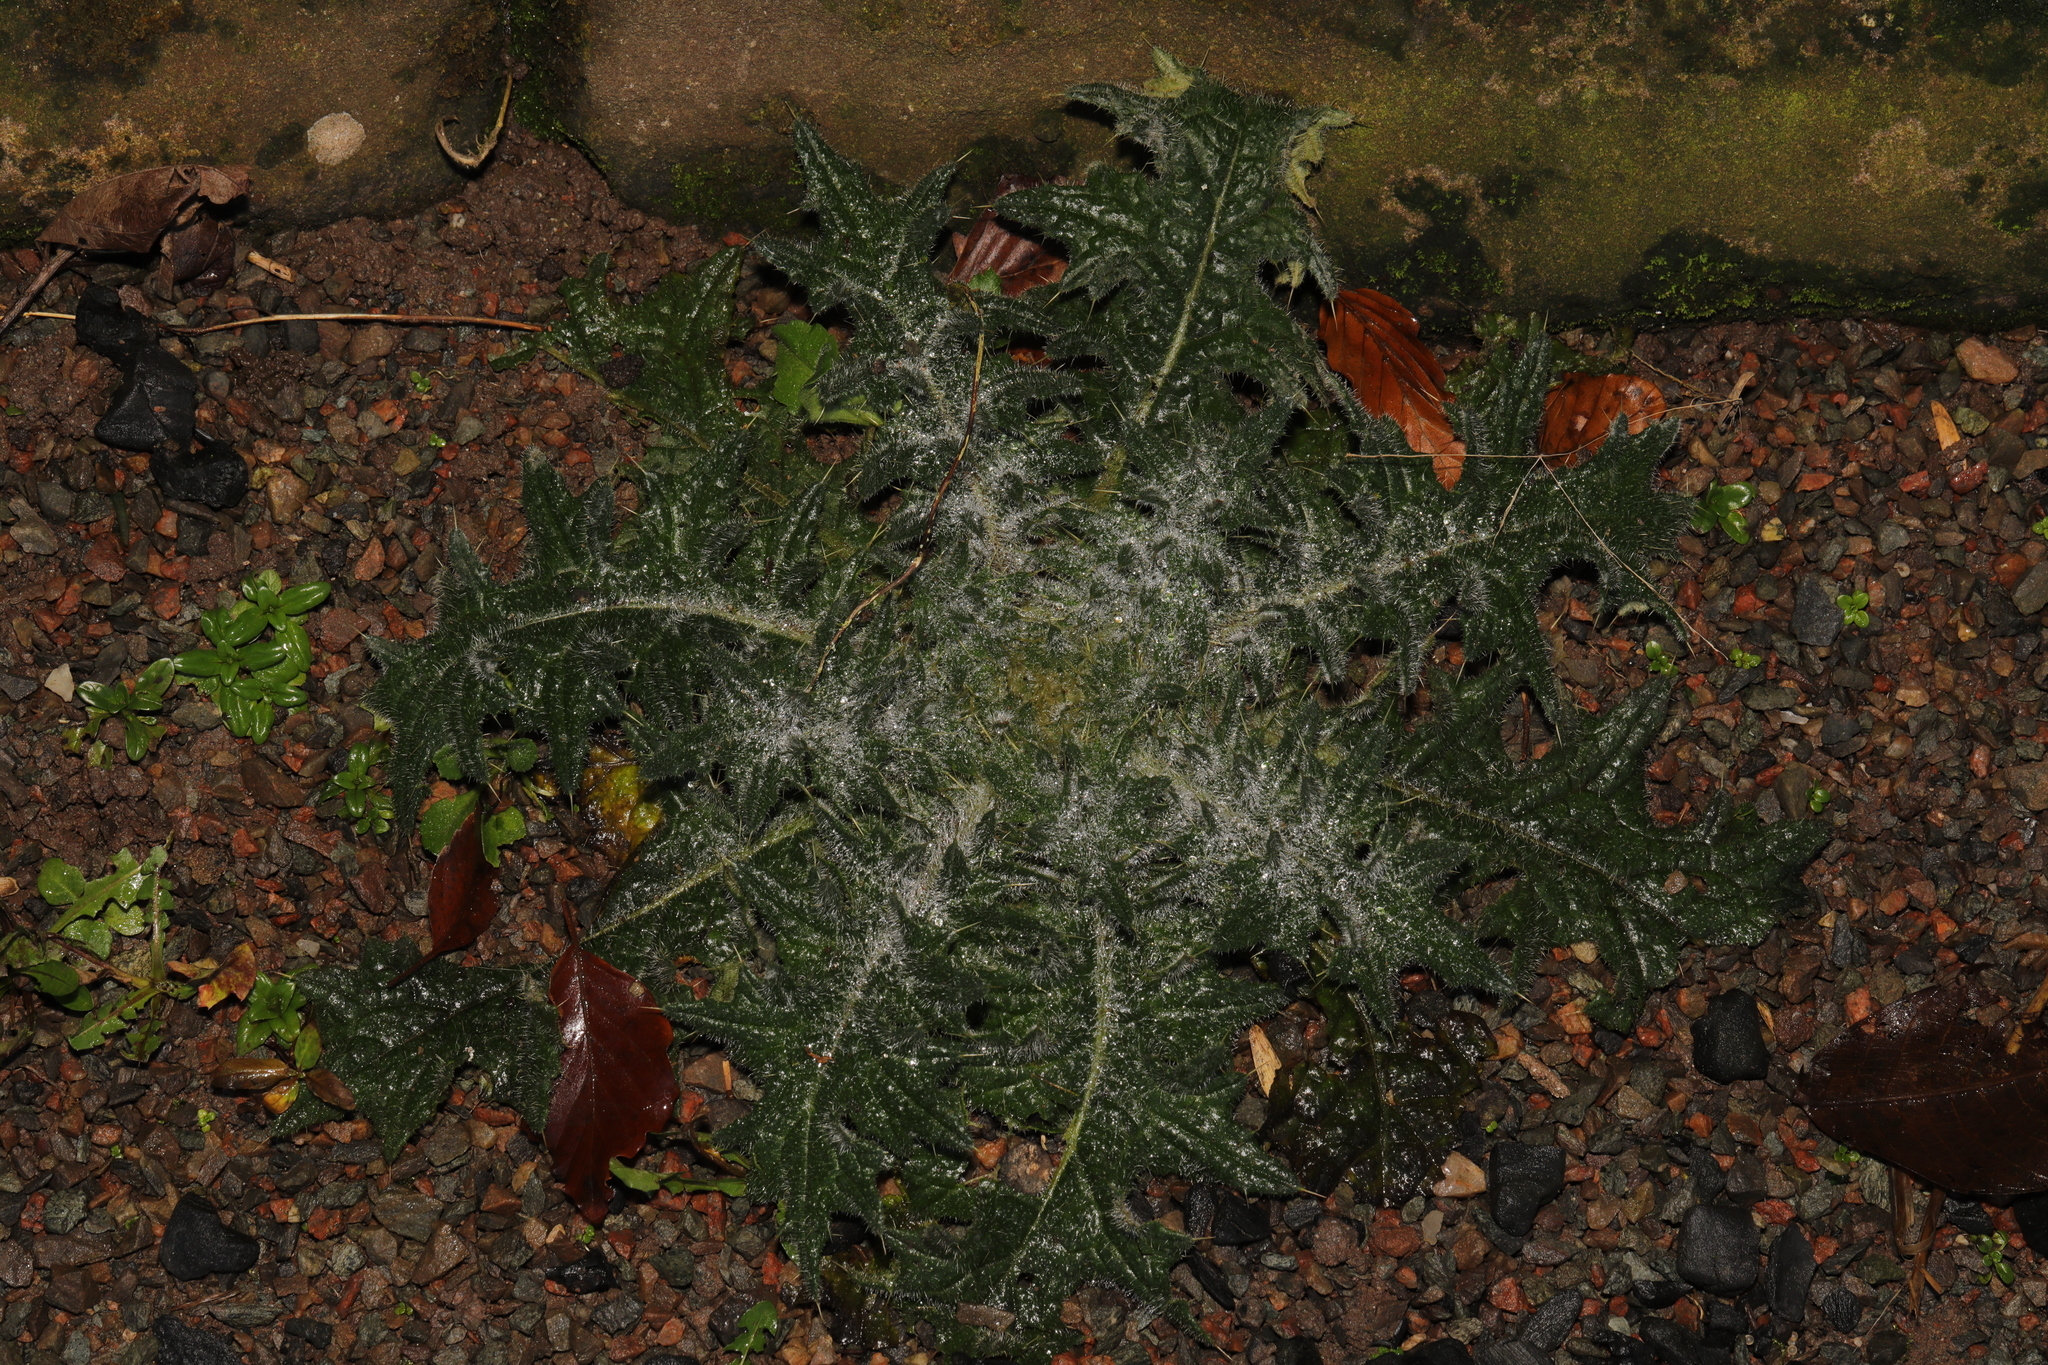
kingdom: Plantae
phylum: Tracheophyta
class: Magnoliopsida
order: Asterales
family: Asteraceae
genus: Cirsium
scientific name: Cirsium vulgare
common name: Bull thistle
